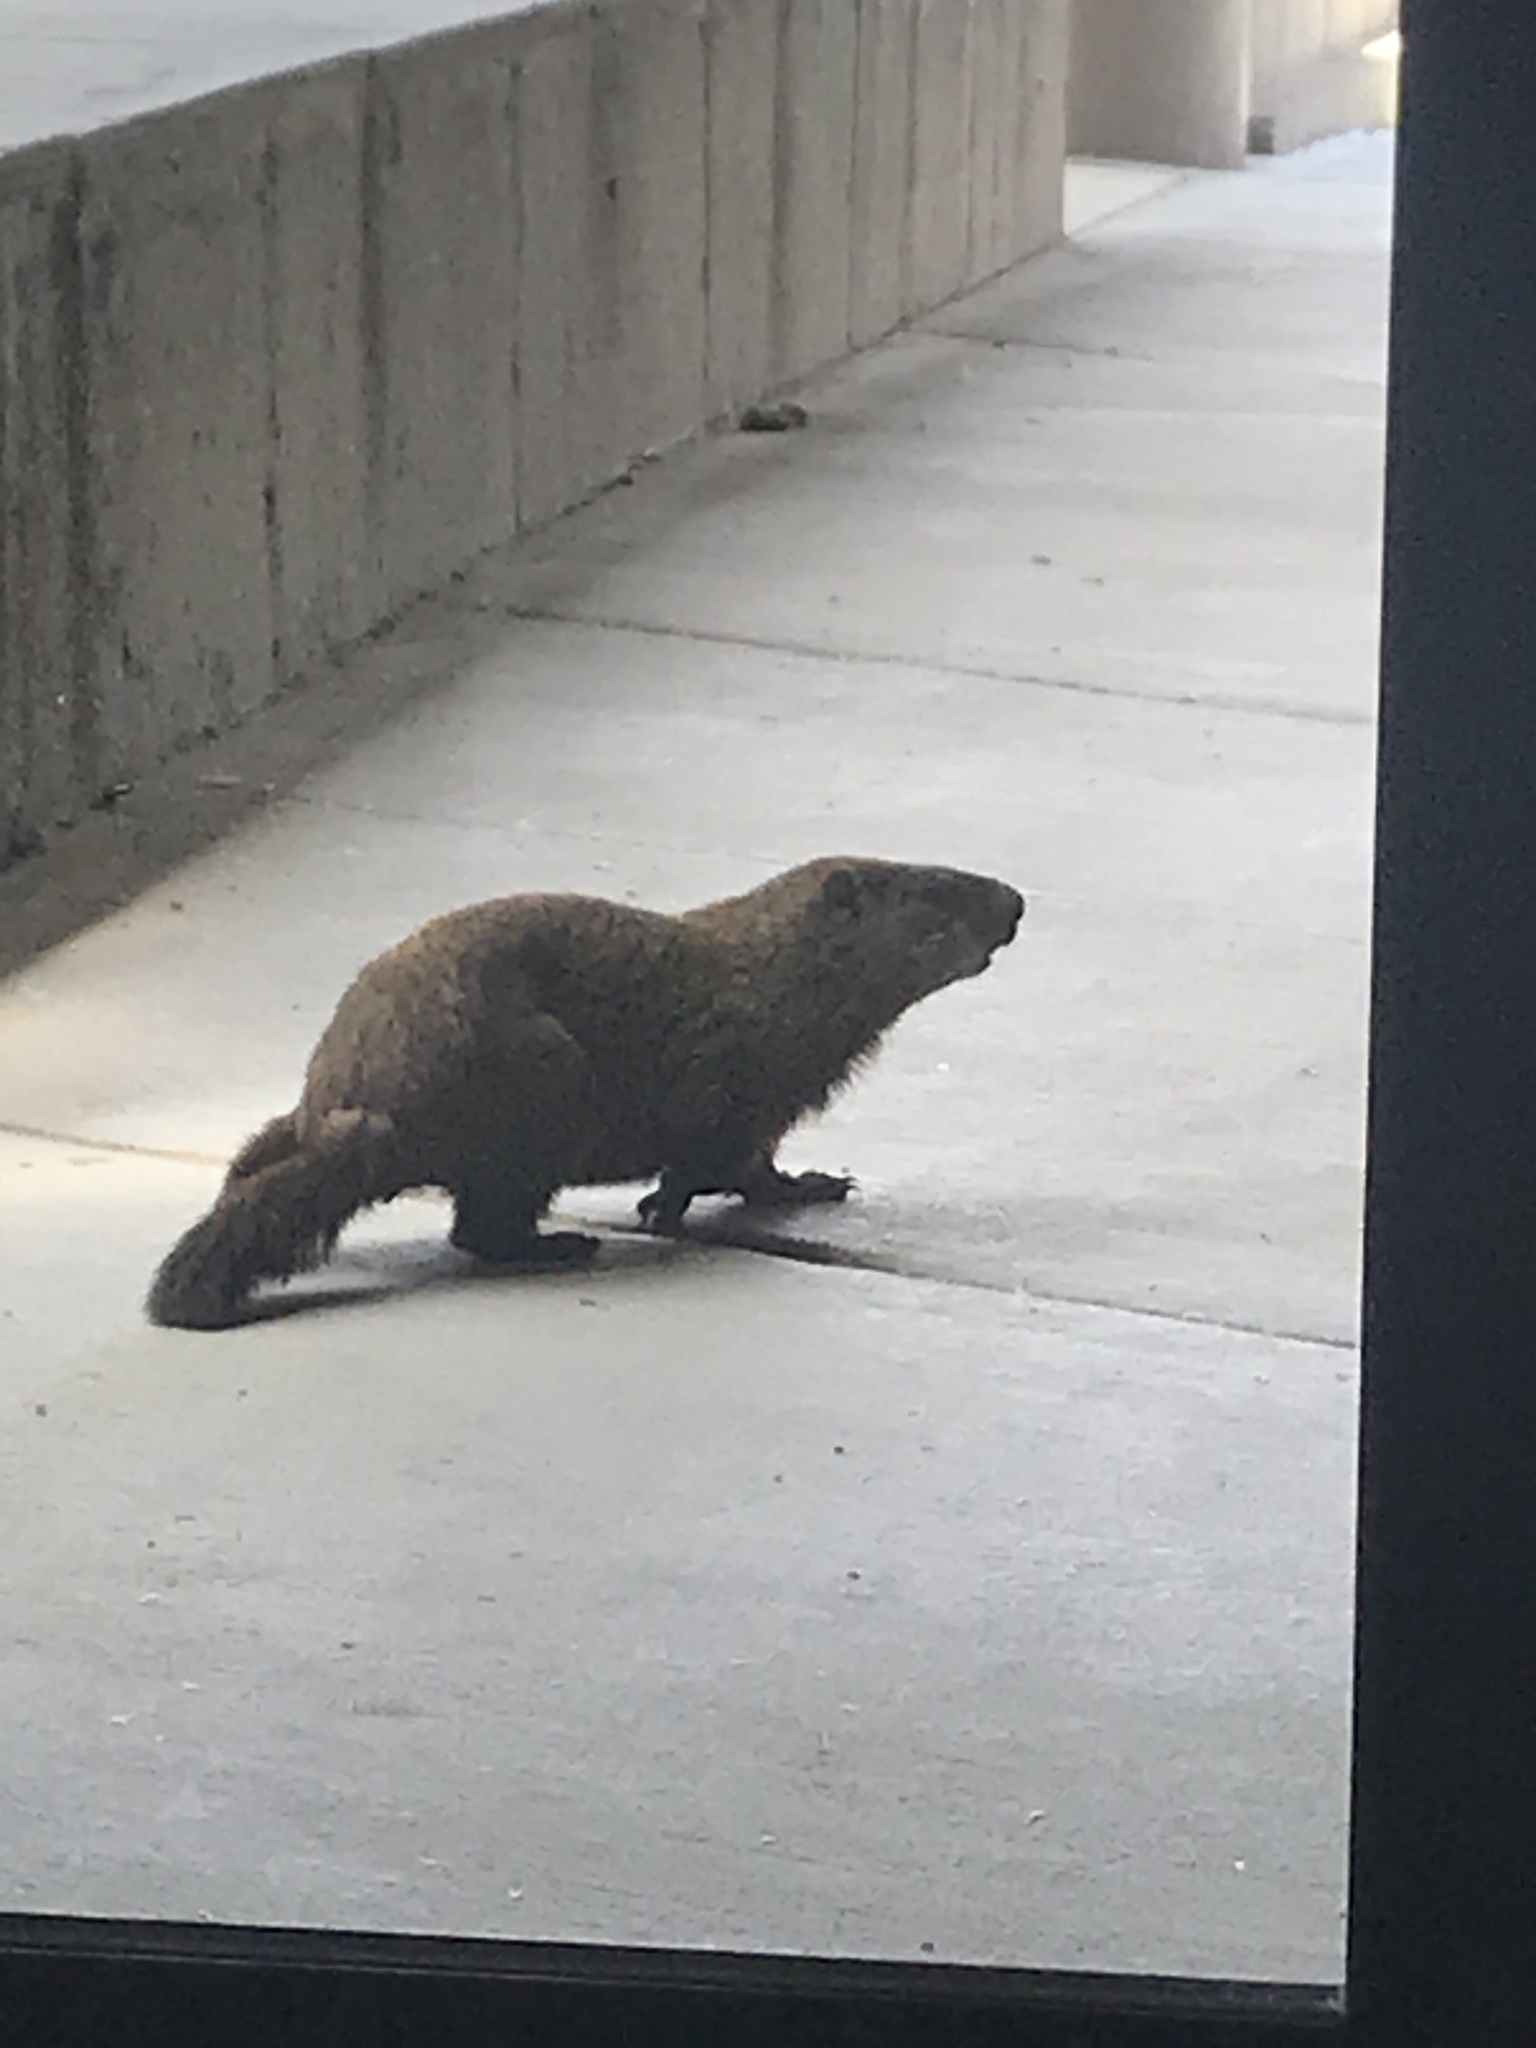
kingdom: Animalia
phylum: Chordata
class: Mammalia
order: Rodentia
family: Sciuridae
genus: Marmota
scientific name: Marmota monax
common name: Groundhog
